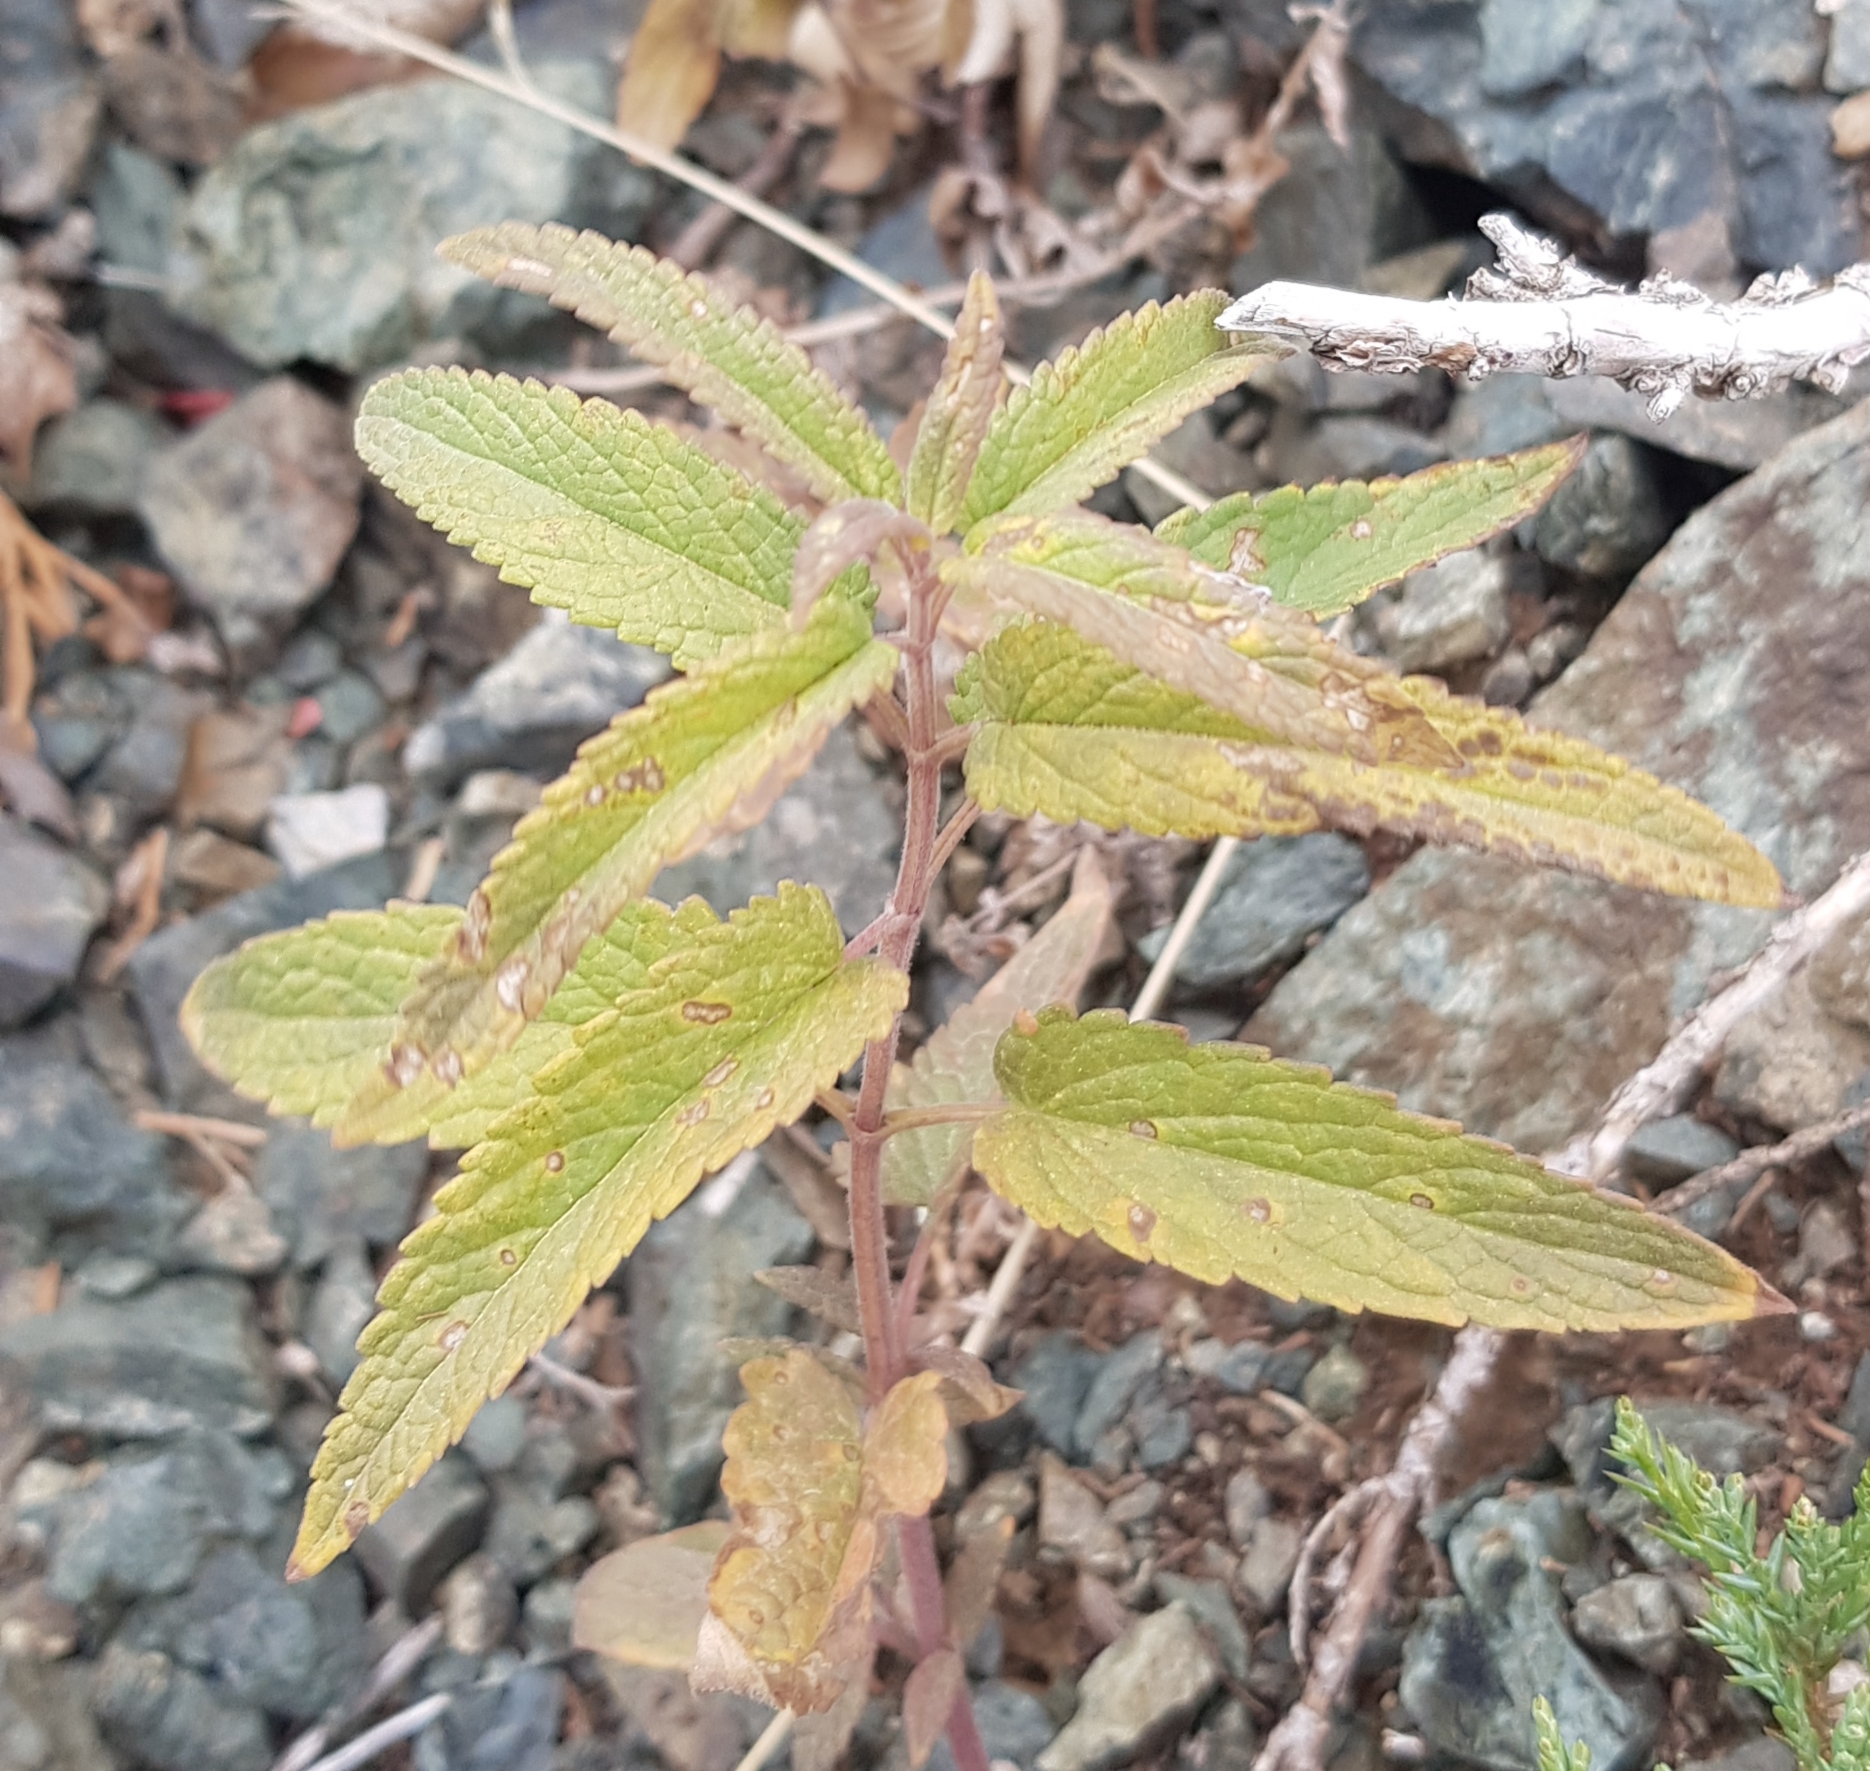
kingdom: Plantae
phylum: Tracheophyta
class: Magnoliopsida
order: Lamiales
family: Lamiaceae
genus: Dracocephalum
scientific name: Dracocephalum nutans
